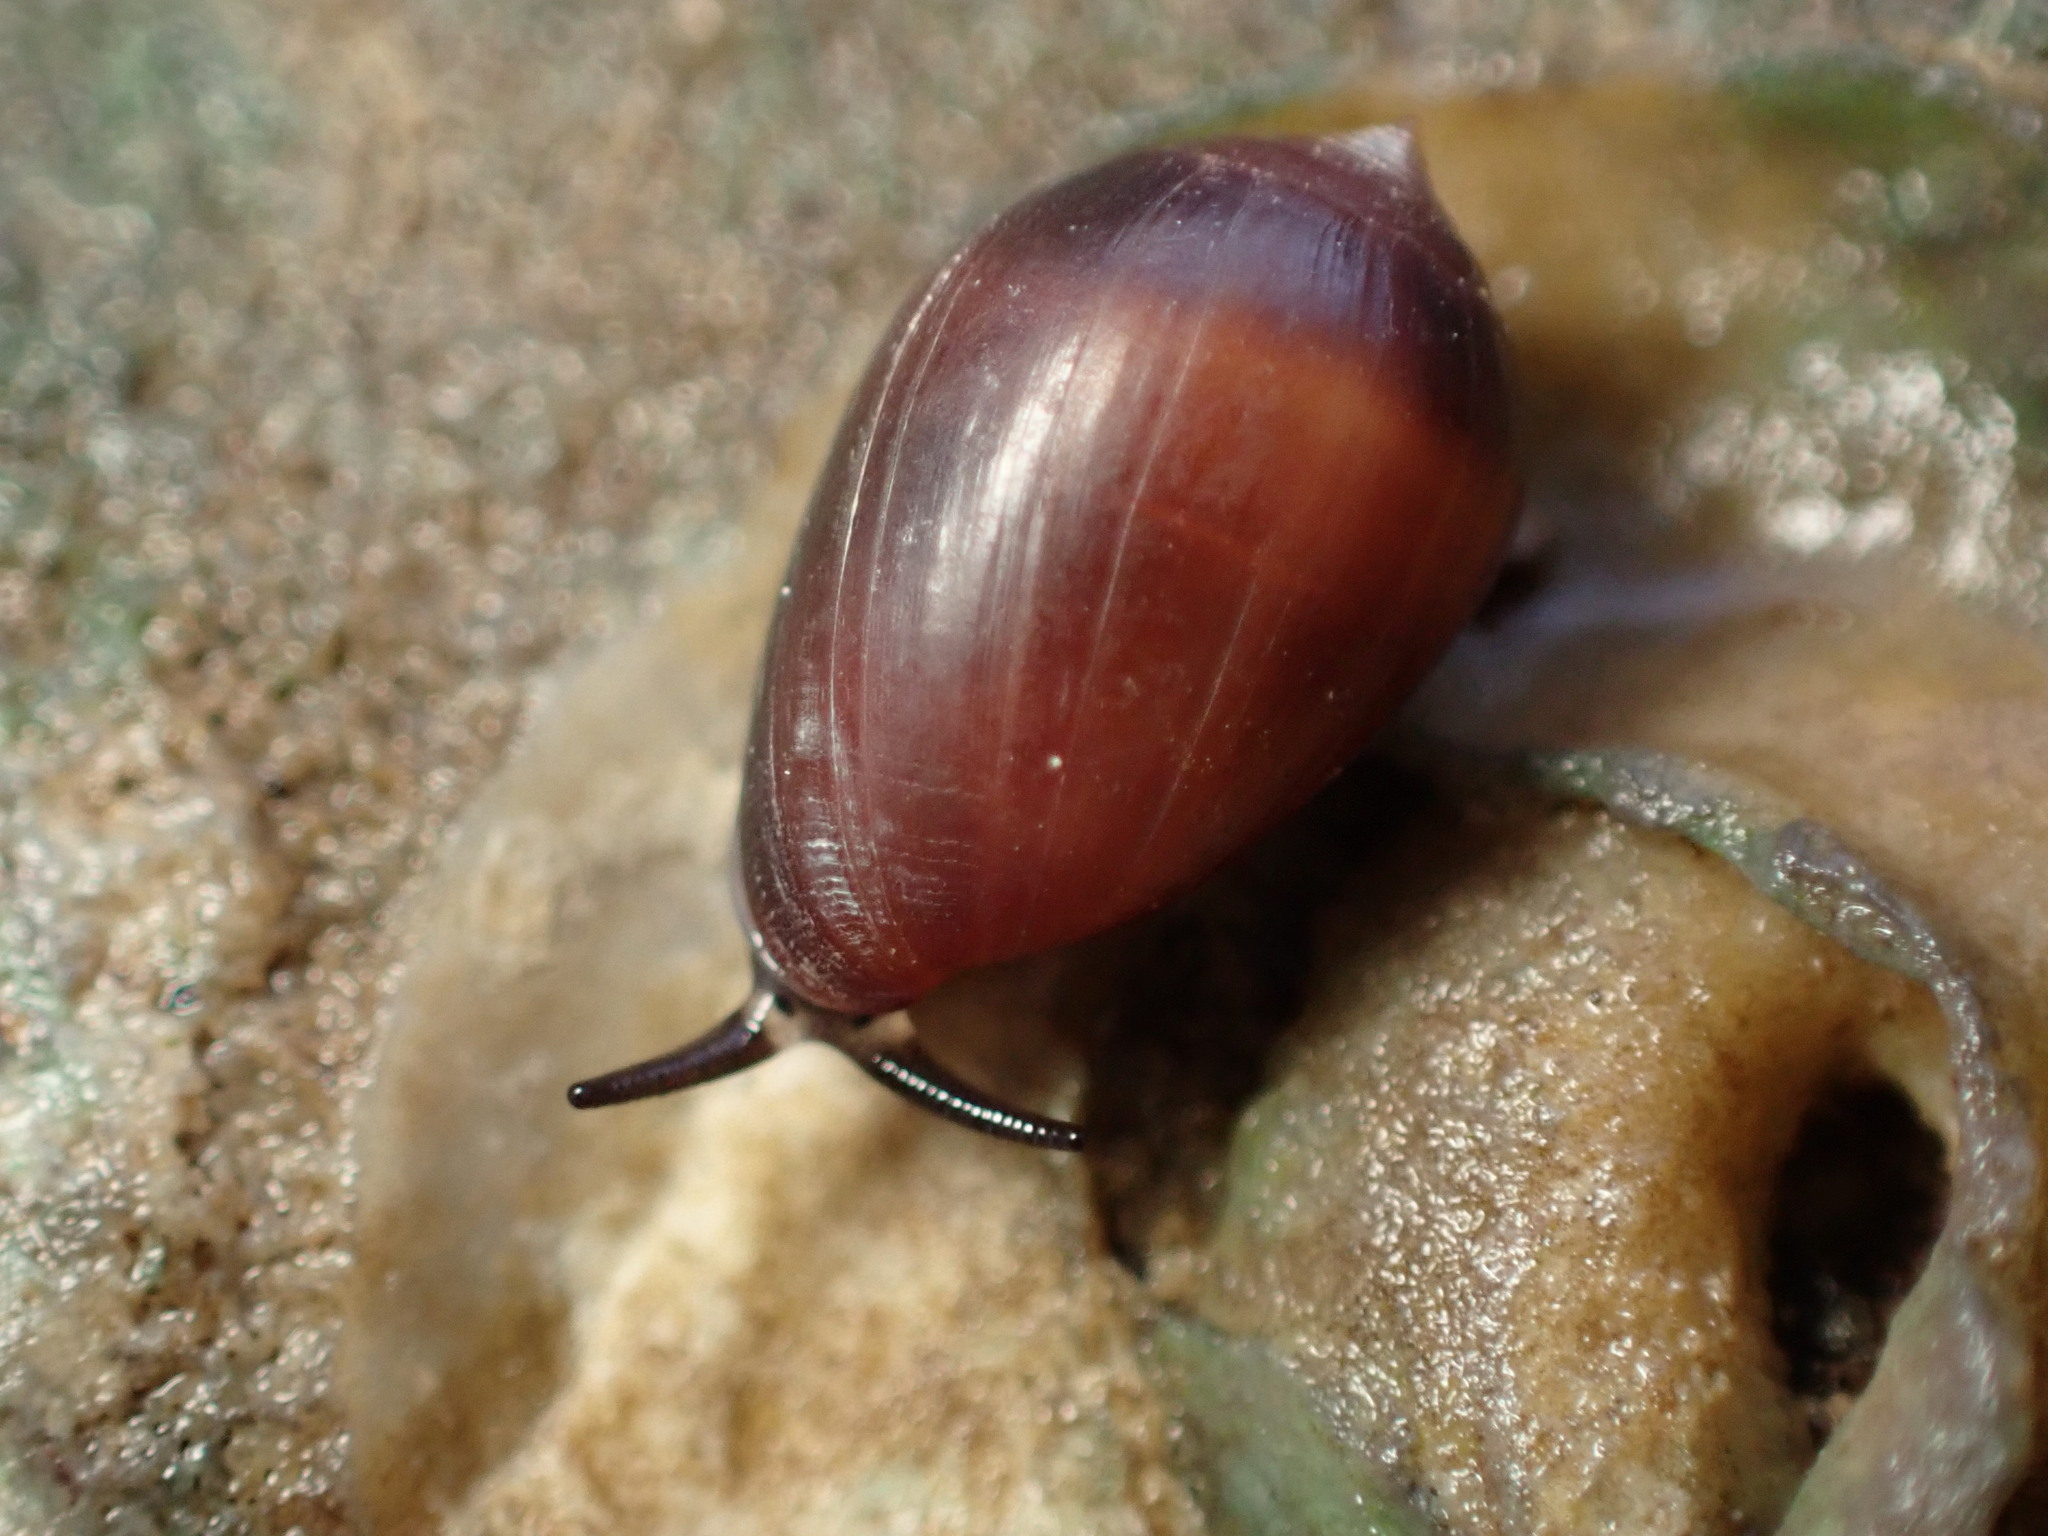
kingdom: Animalia
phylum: Mollusca
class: Gastropoda
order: Ellobiida
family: Ellobiidae
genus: Melampus
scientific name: Melampus castaneus
